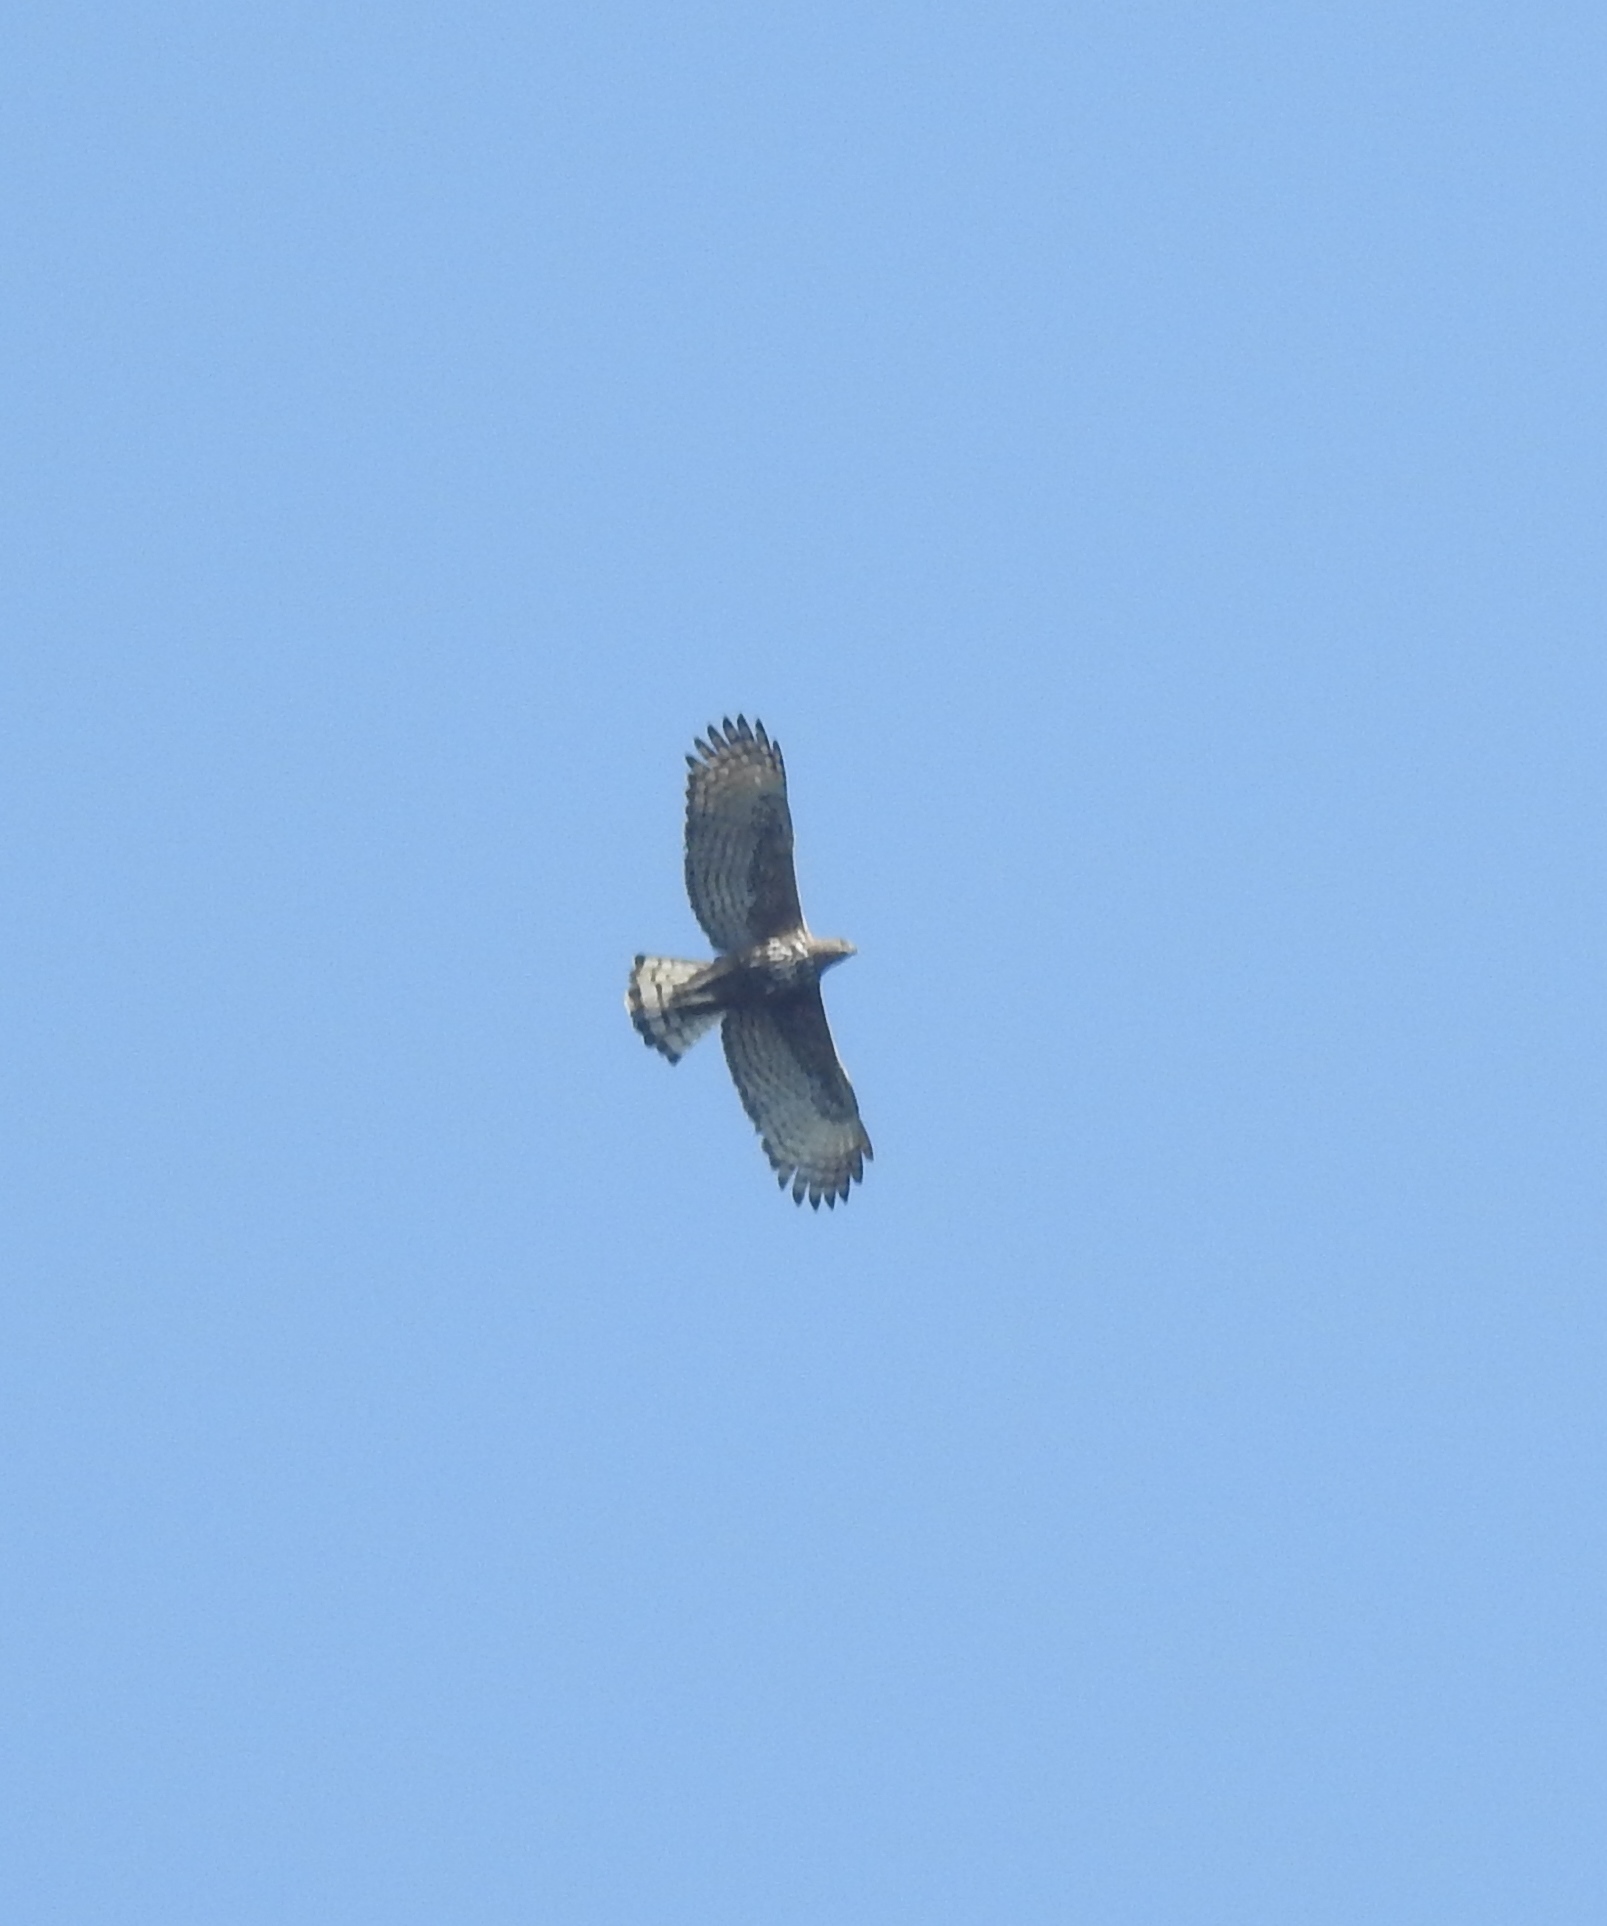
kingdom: Animalia
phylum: Chordata
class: Aves
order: Accipitriformes
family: Accipitridae
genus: Nisaetus
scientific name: Nisaetus cirrhatus
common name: Changeable hawk-eagle
